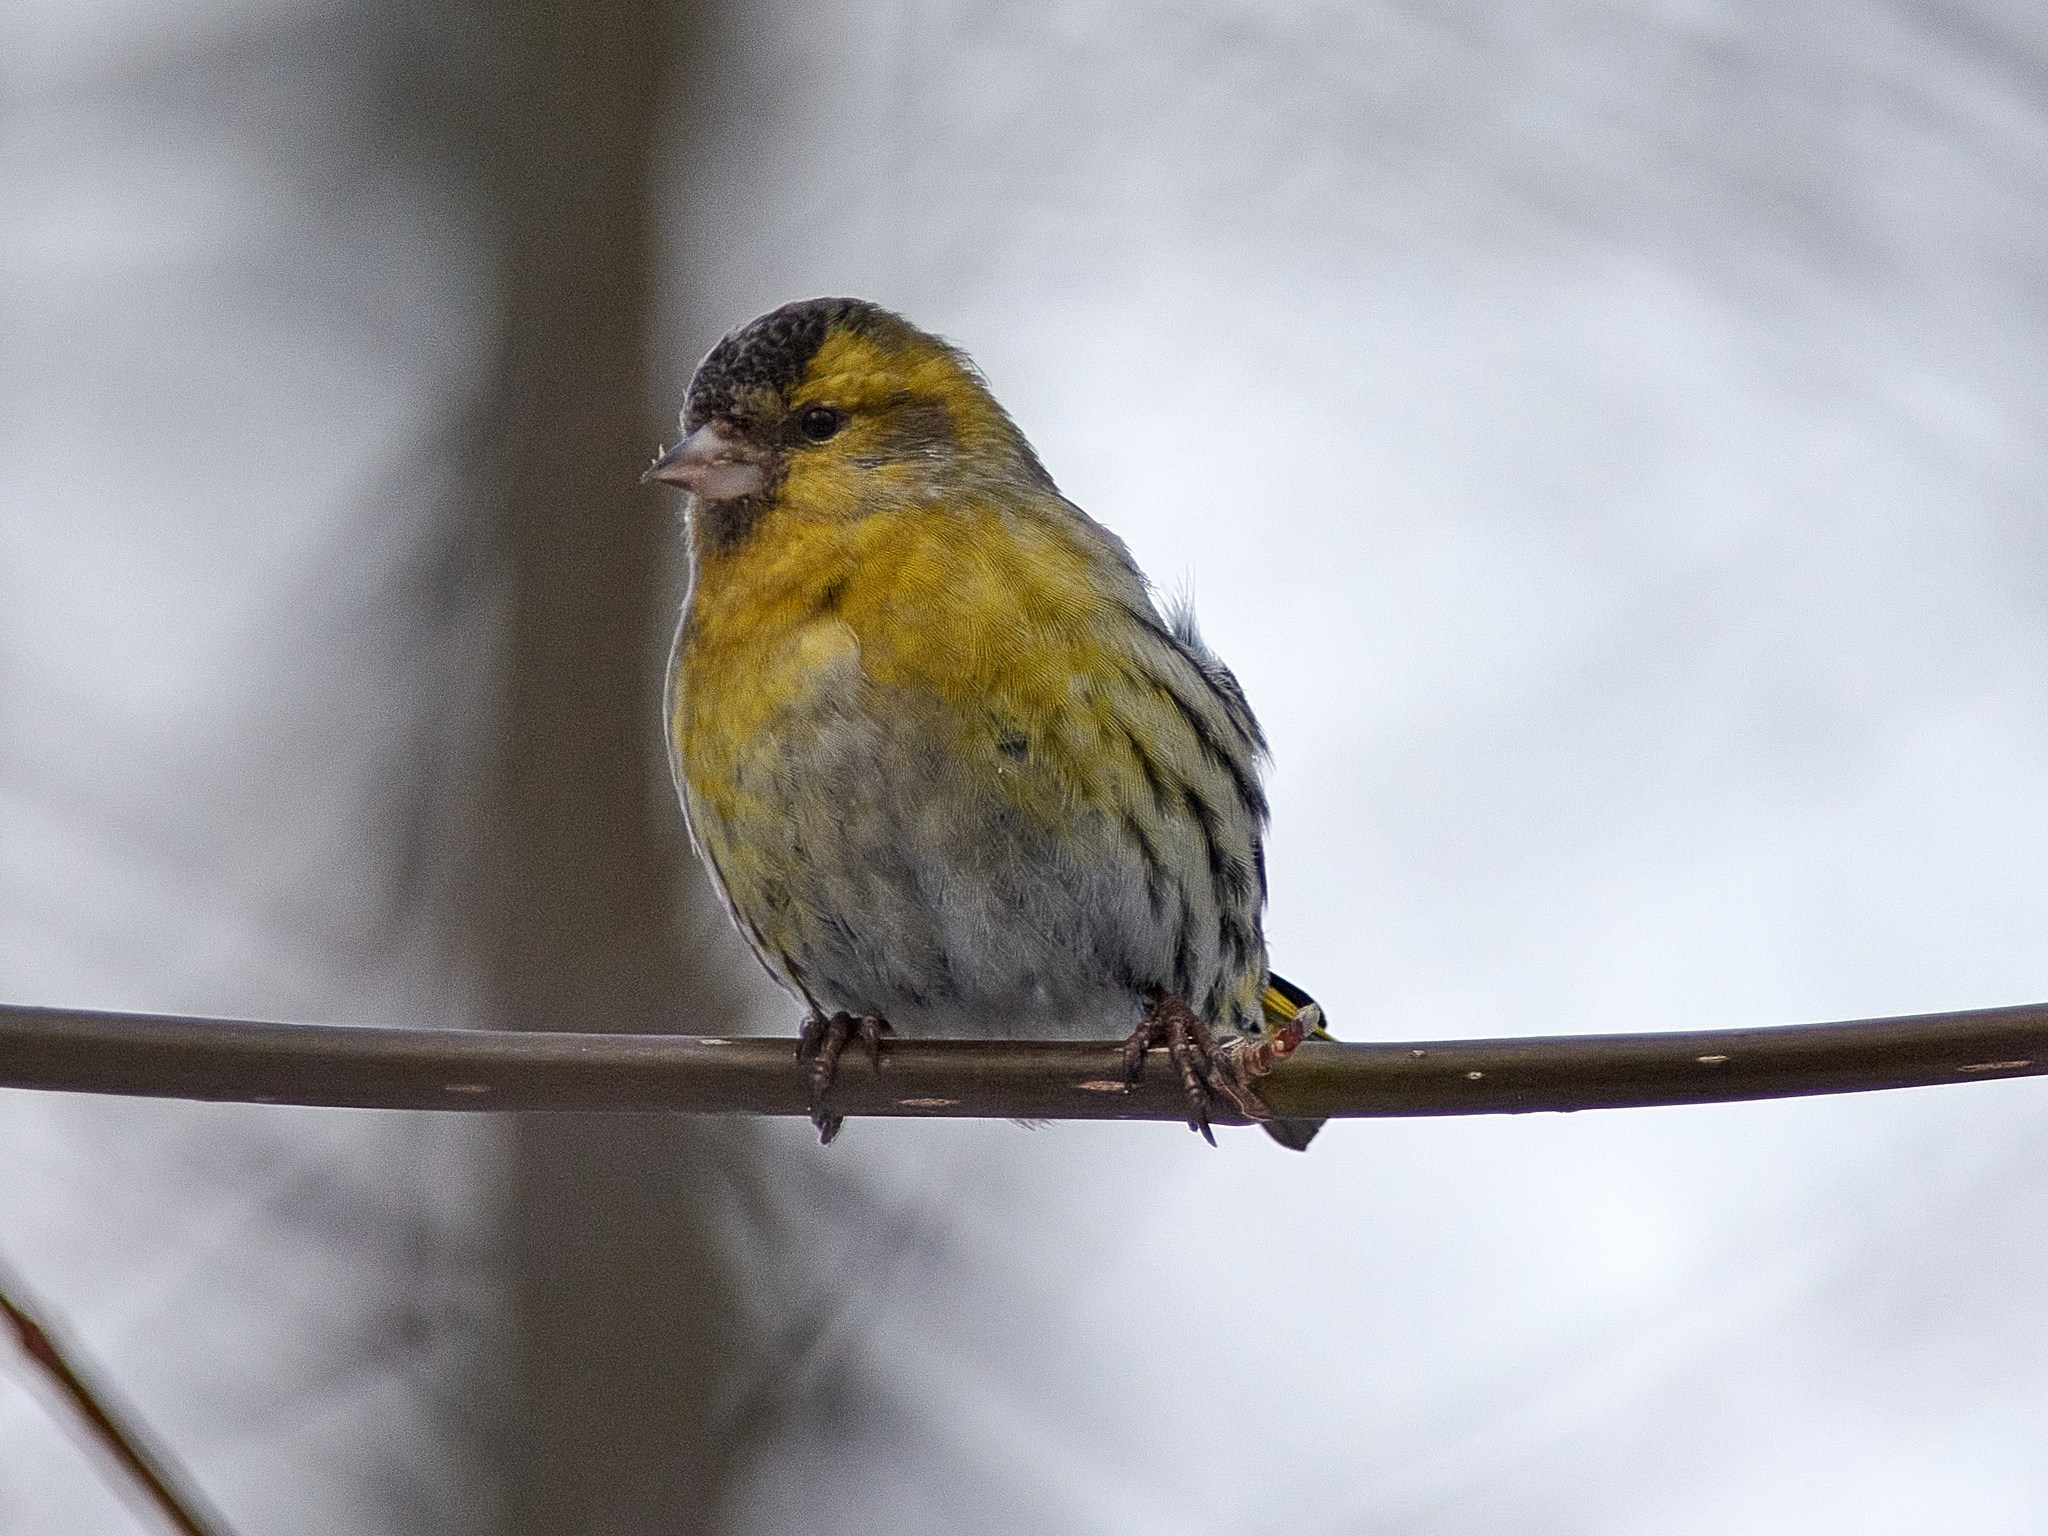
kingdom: Animalia
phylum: Chordata
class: Aves
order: Passeriformes
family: Fringillidae
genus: Spinus
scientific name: Spinus spinus
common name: Eurasian siskin
